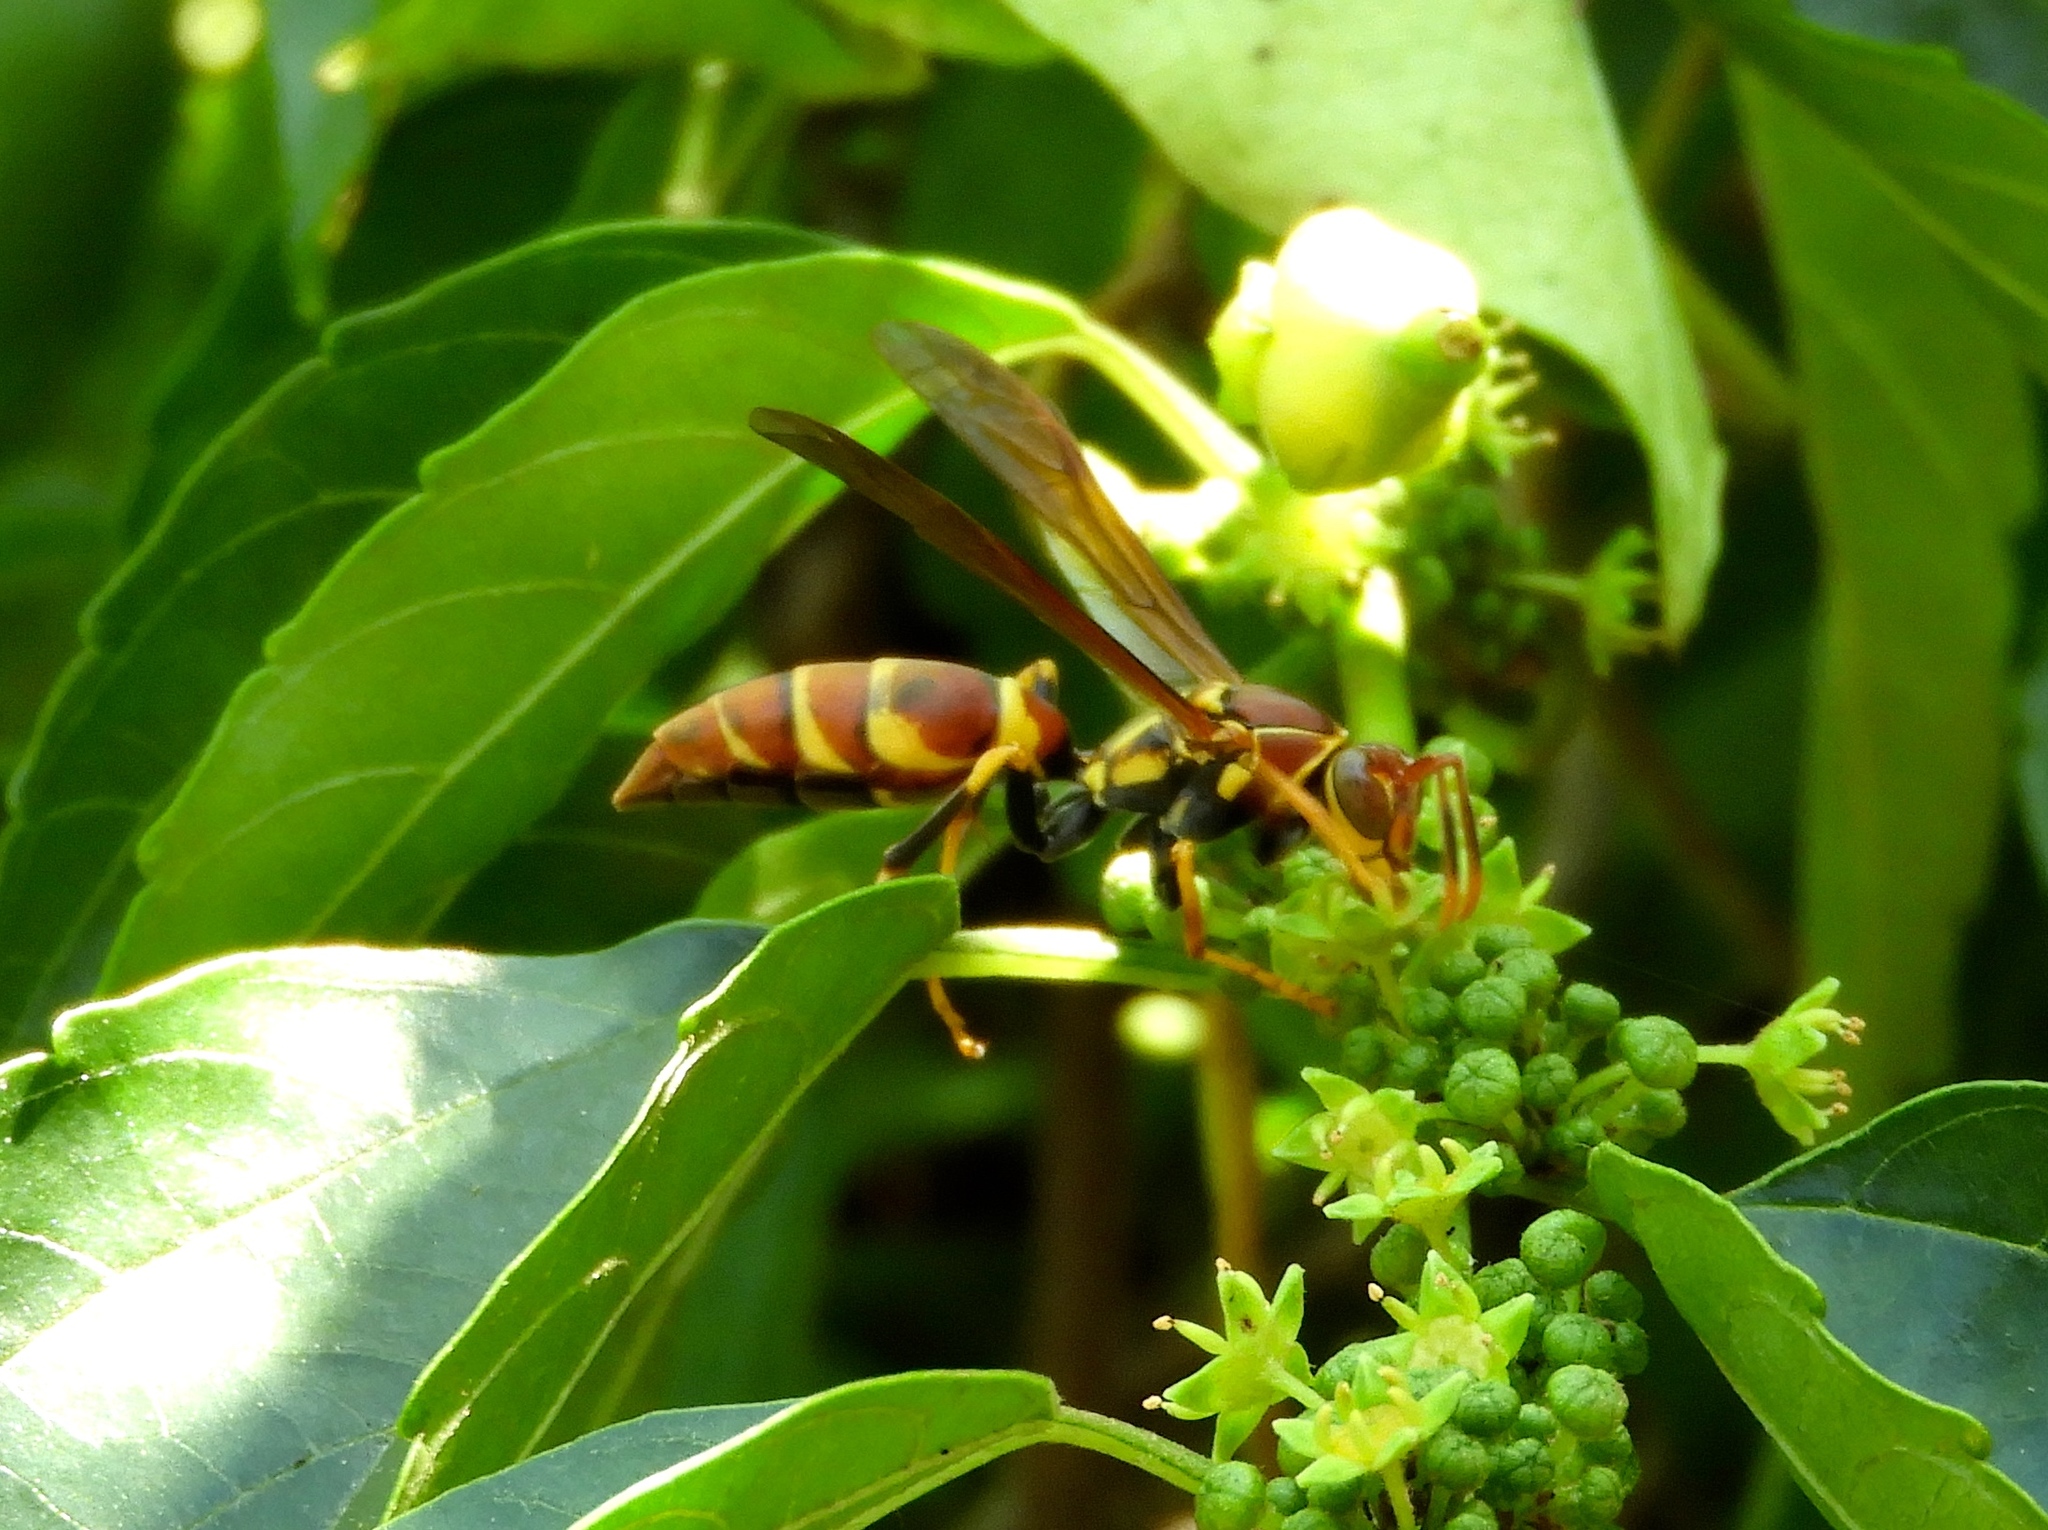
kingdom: Animalia
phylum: Arthropoda
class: Insecta
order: Hymenoptera
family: Eumenidae
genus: Polistes
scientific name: Polistes instabilis
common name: Unstable paper wasp
